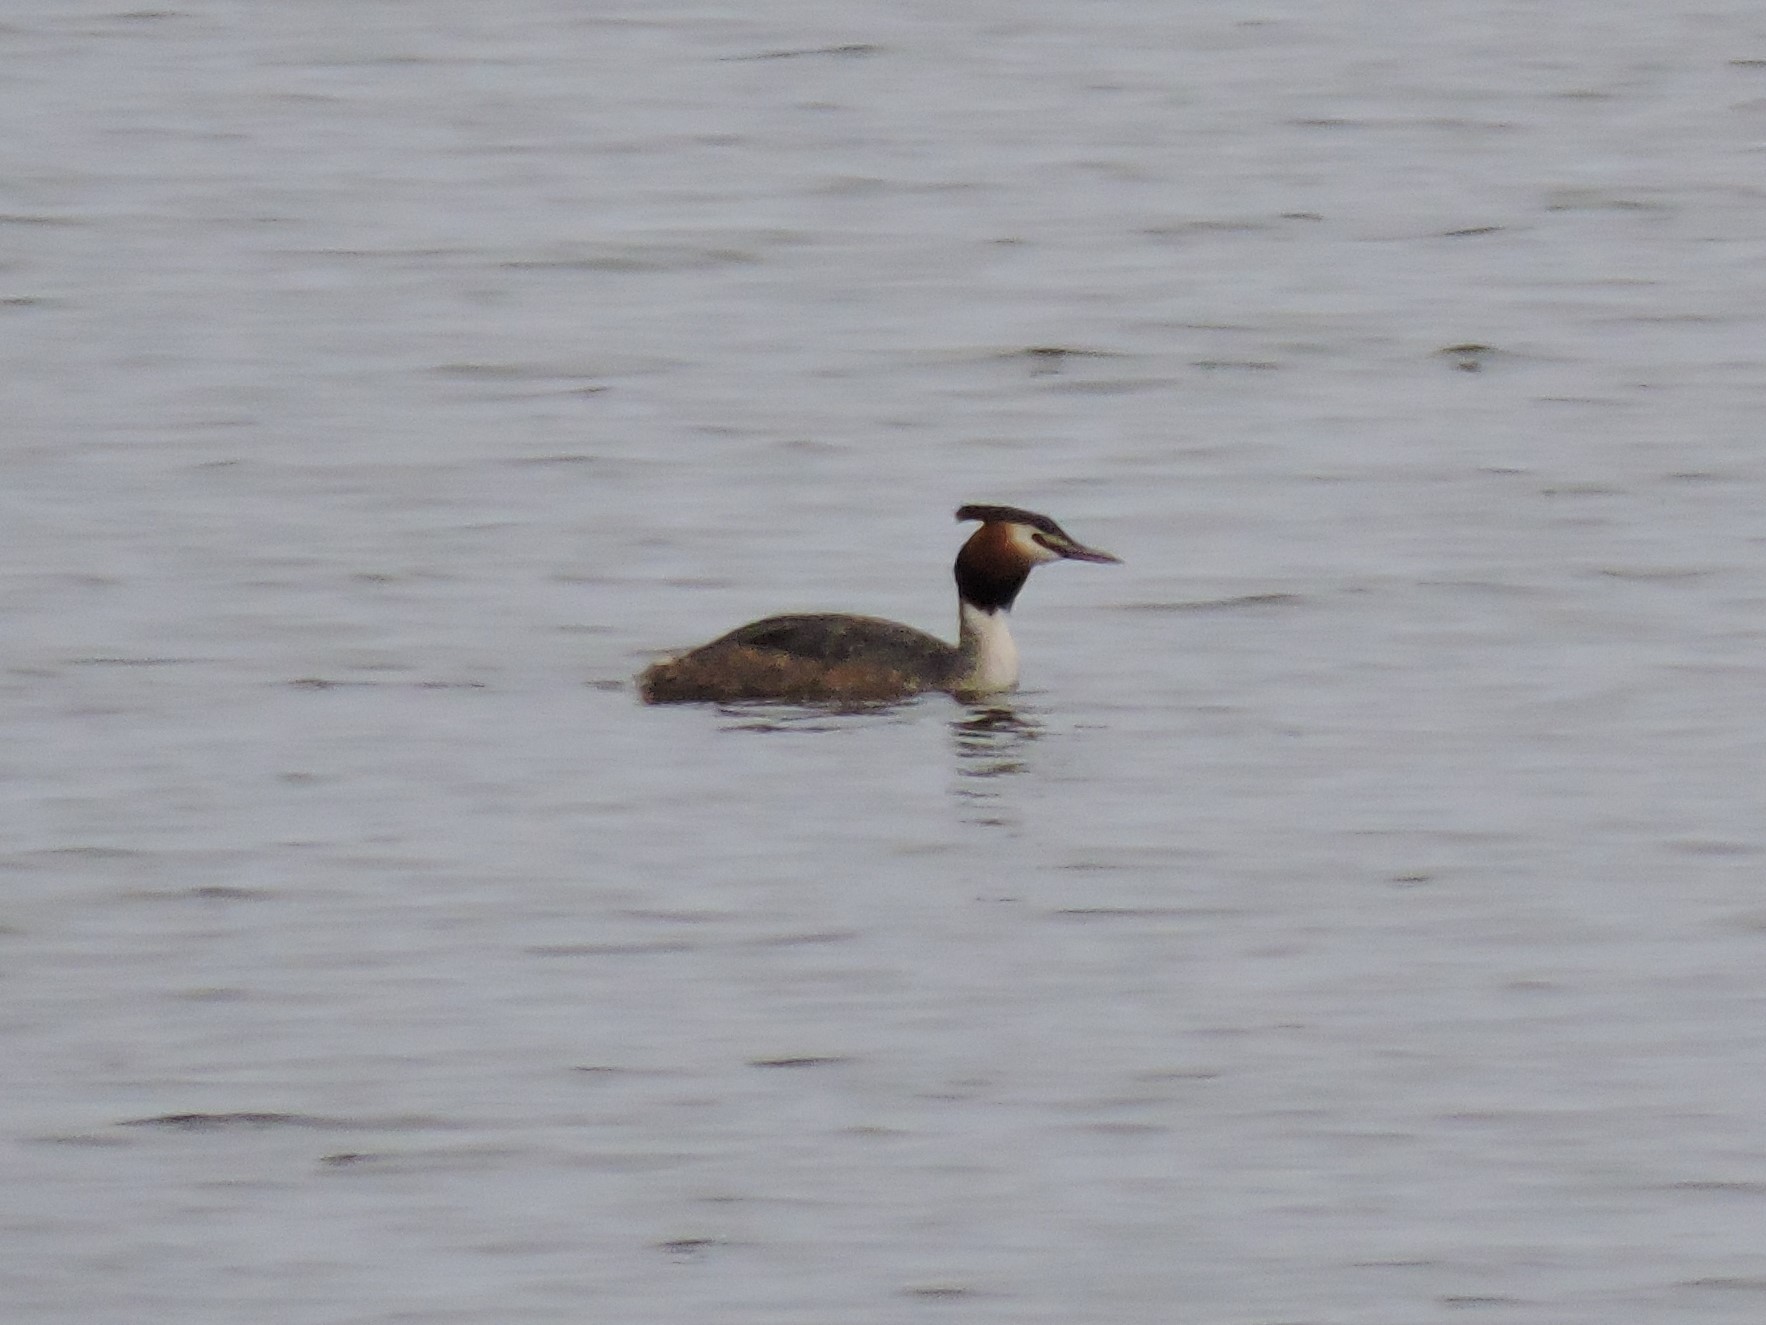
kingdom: Animalia
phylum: Chordata
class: Aves
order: Podicipediformes
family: Podicipedidae
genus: Podiceps
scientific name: Podiceps cristatus
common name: Great crested grebe
